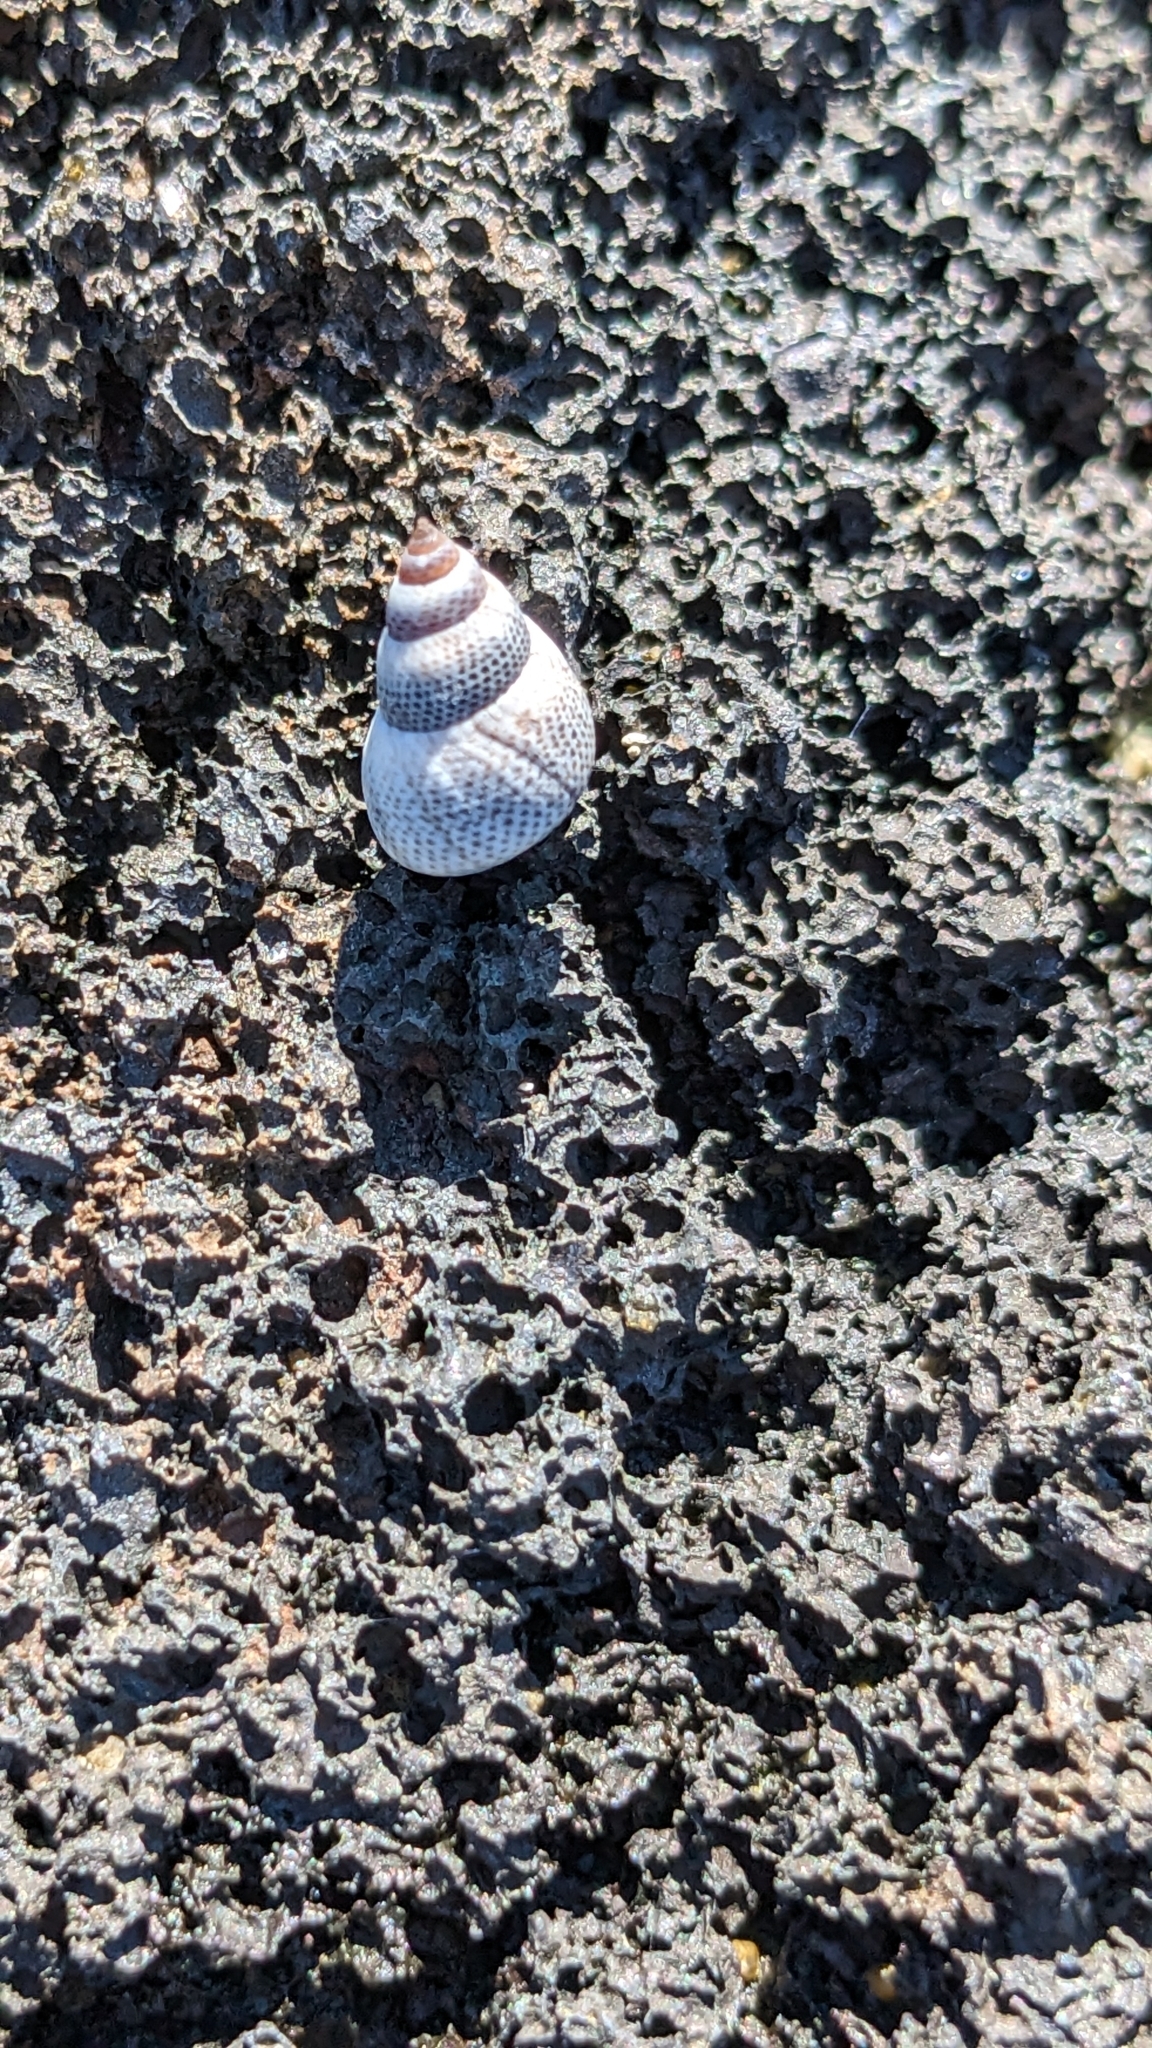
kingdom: Animalia
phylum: Mollusca
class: Gastropoda
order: Littorinimorpha
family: Littorinidae
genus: Littoraria
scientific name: Littoraria pintado
